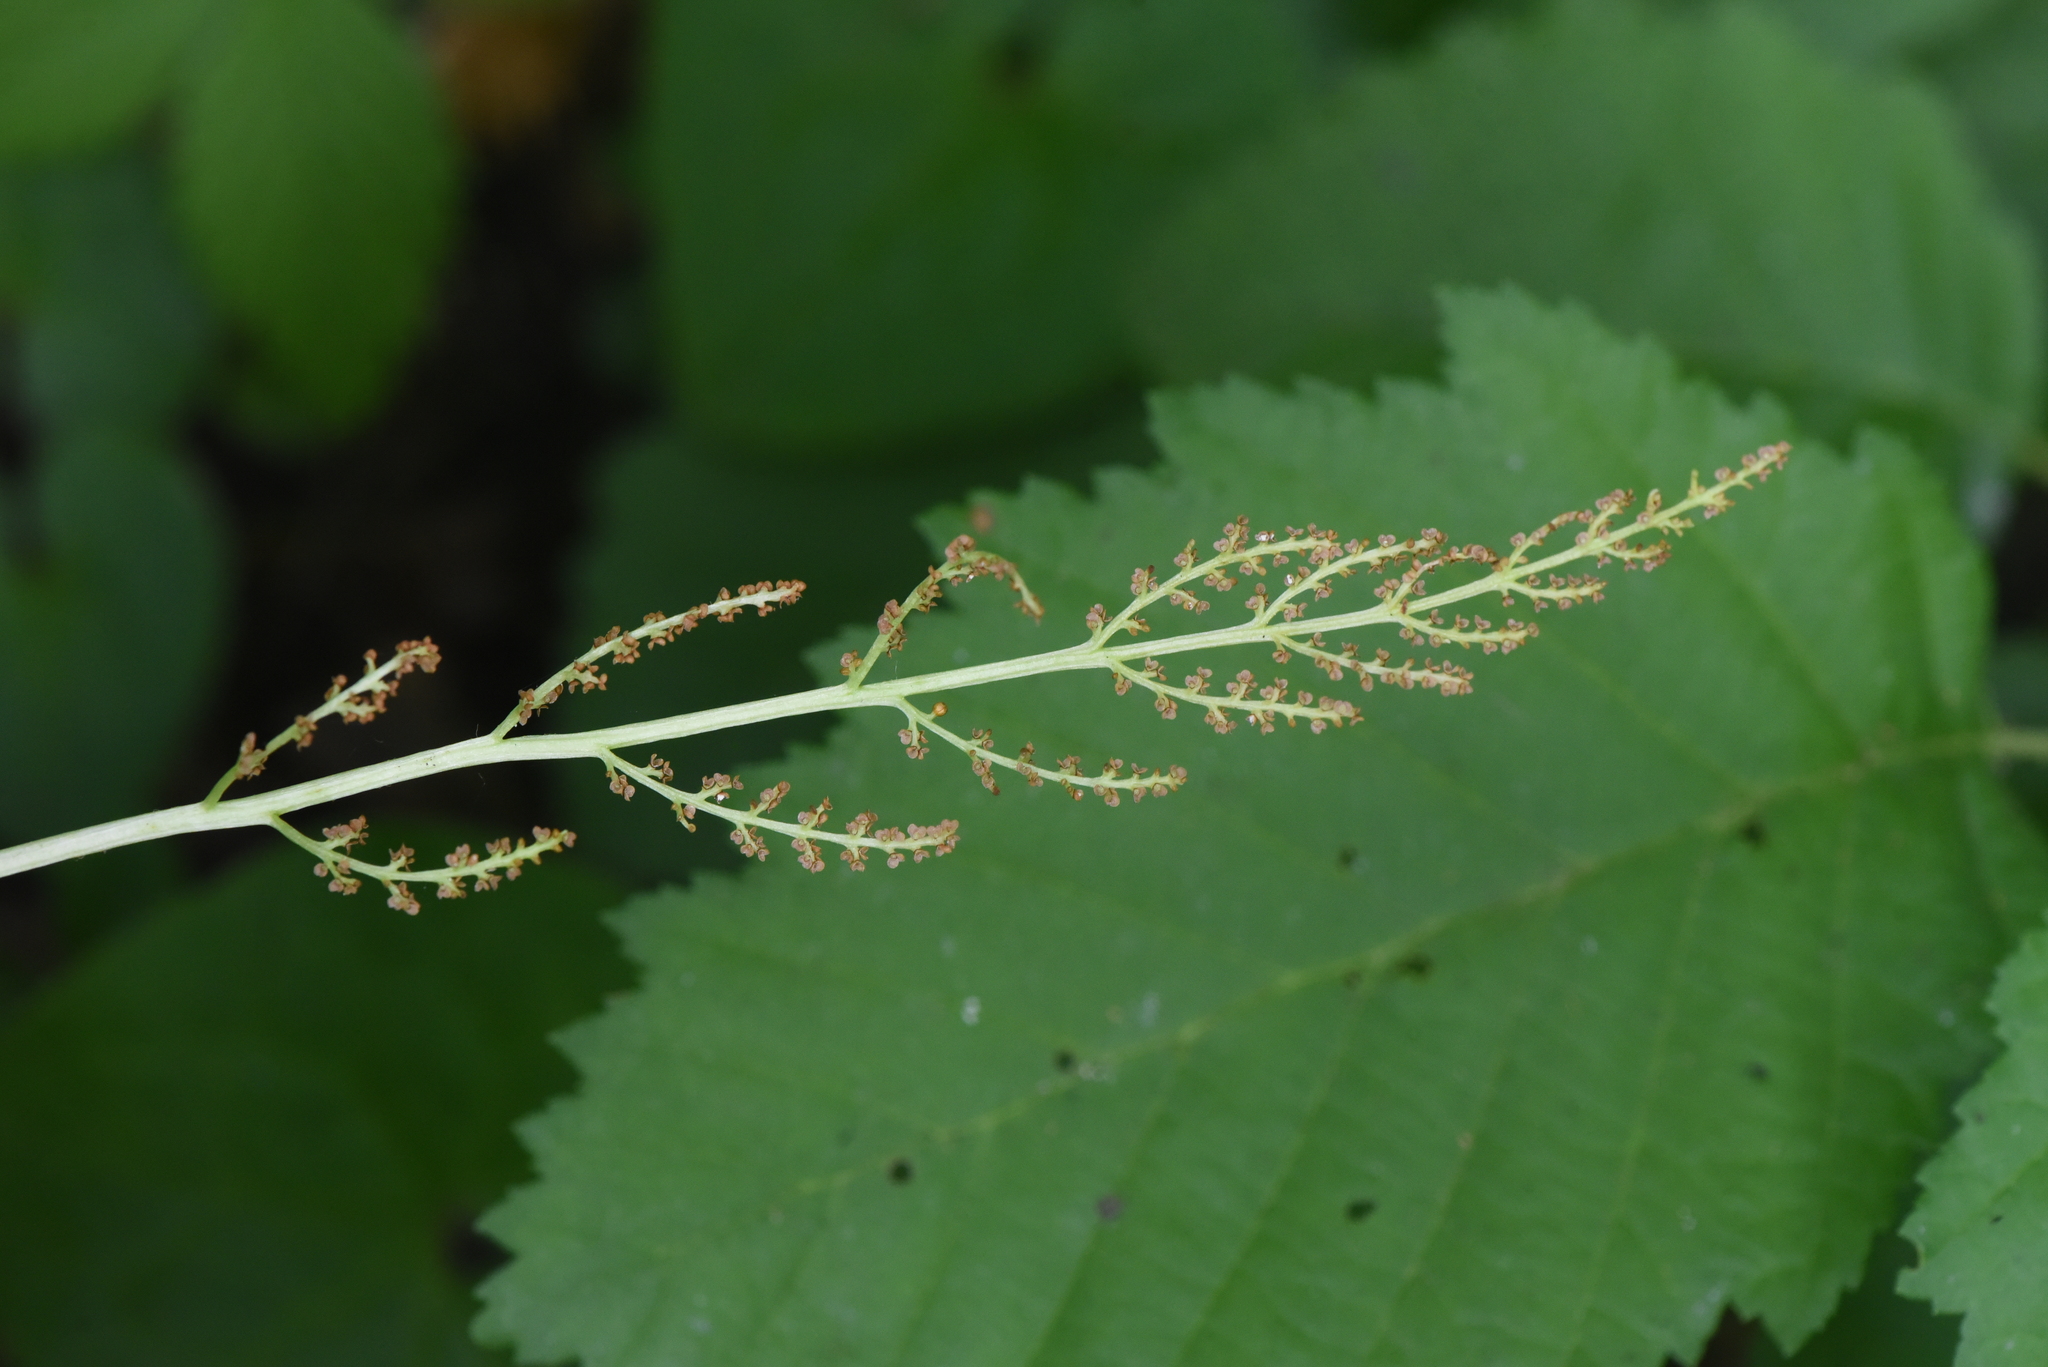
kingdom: Plantae
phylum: Tracheophyta
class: Polypodiopsida
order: Ophioglossales
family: Ophioglossaceae
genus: Botrypus
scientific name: Botrypus virginianus
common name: Common grapefern
